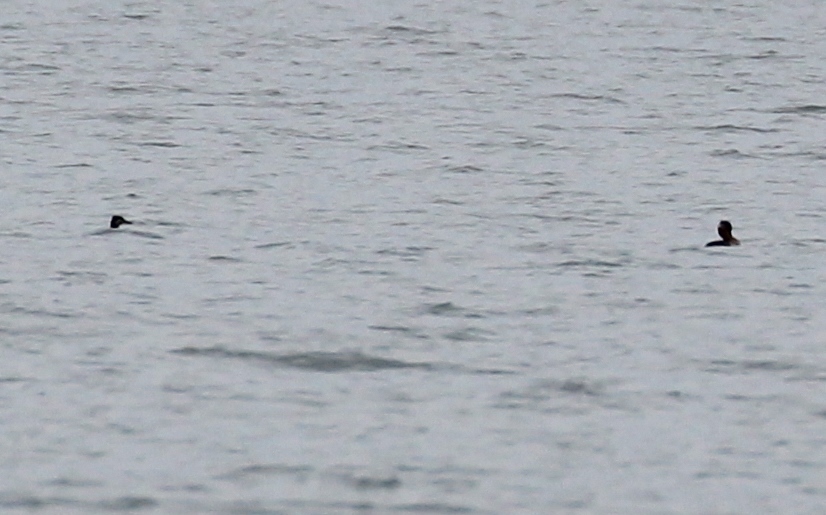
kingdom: Animalia
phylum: Chordata
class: Aves
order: Podicipediformes
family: Podicipedidae
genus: Podiceps
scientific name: Podiceps grisegena
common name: Red-necked grebe
